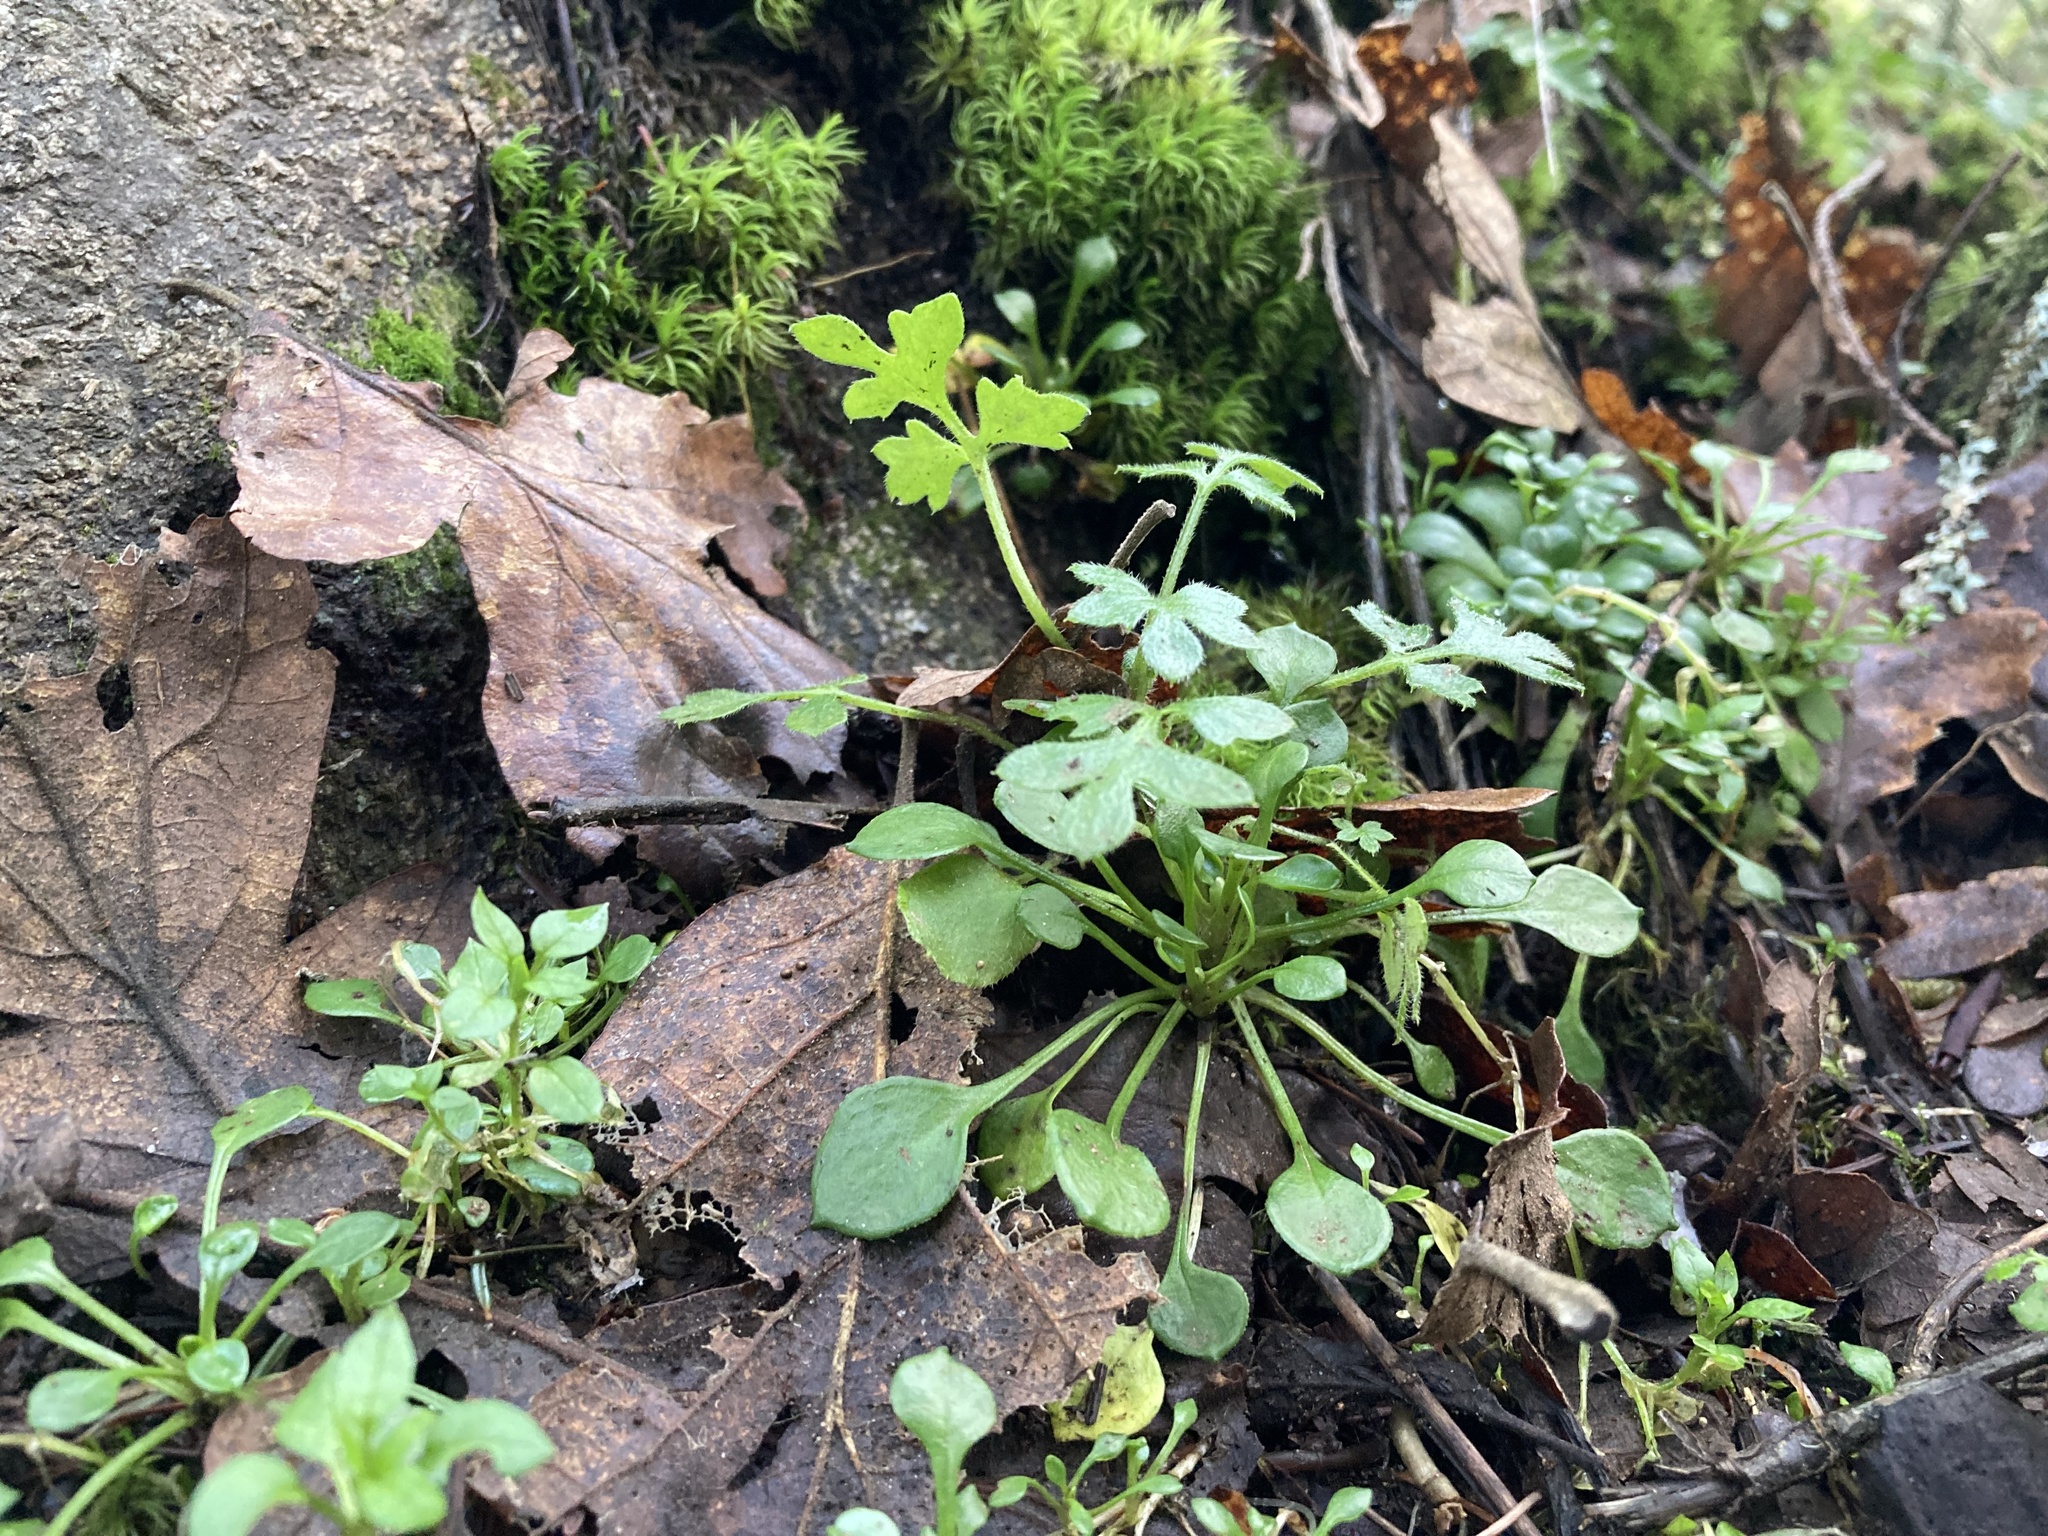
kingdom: Plantae
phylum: Tracheophyta
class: Magnoliopsida
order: Boraginales
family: Hydrophyllaceae
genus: Nemophila
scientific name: Nemophila parviflora
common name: Small-flowered baby-blue-eyes
